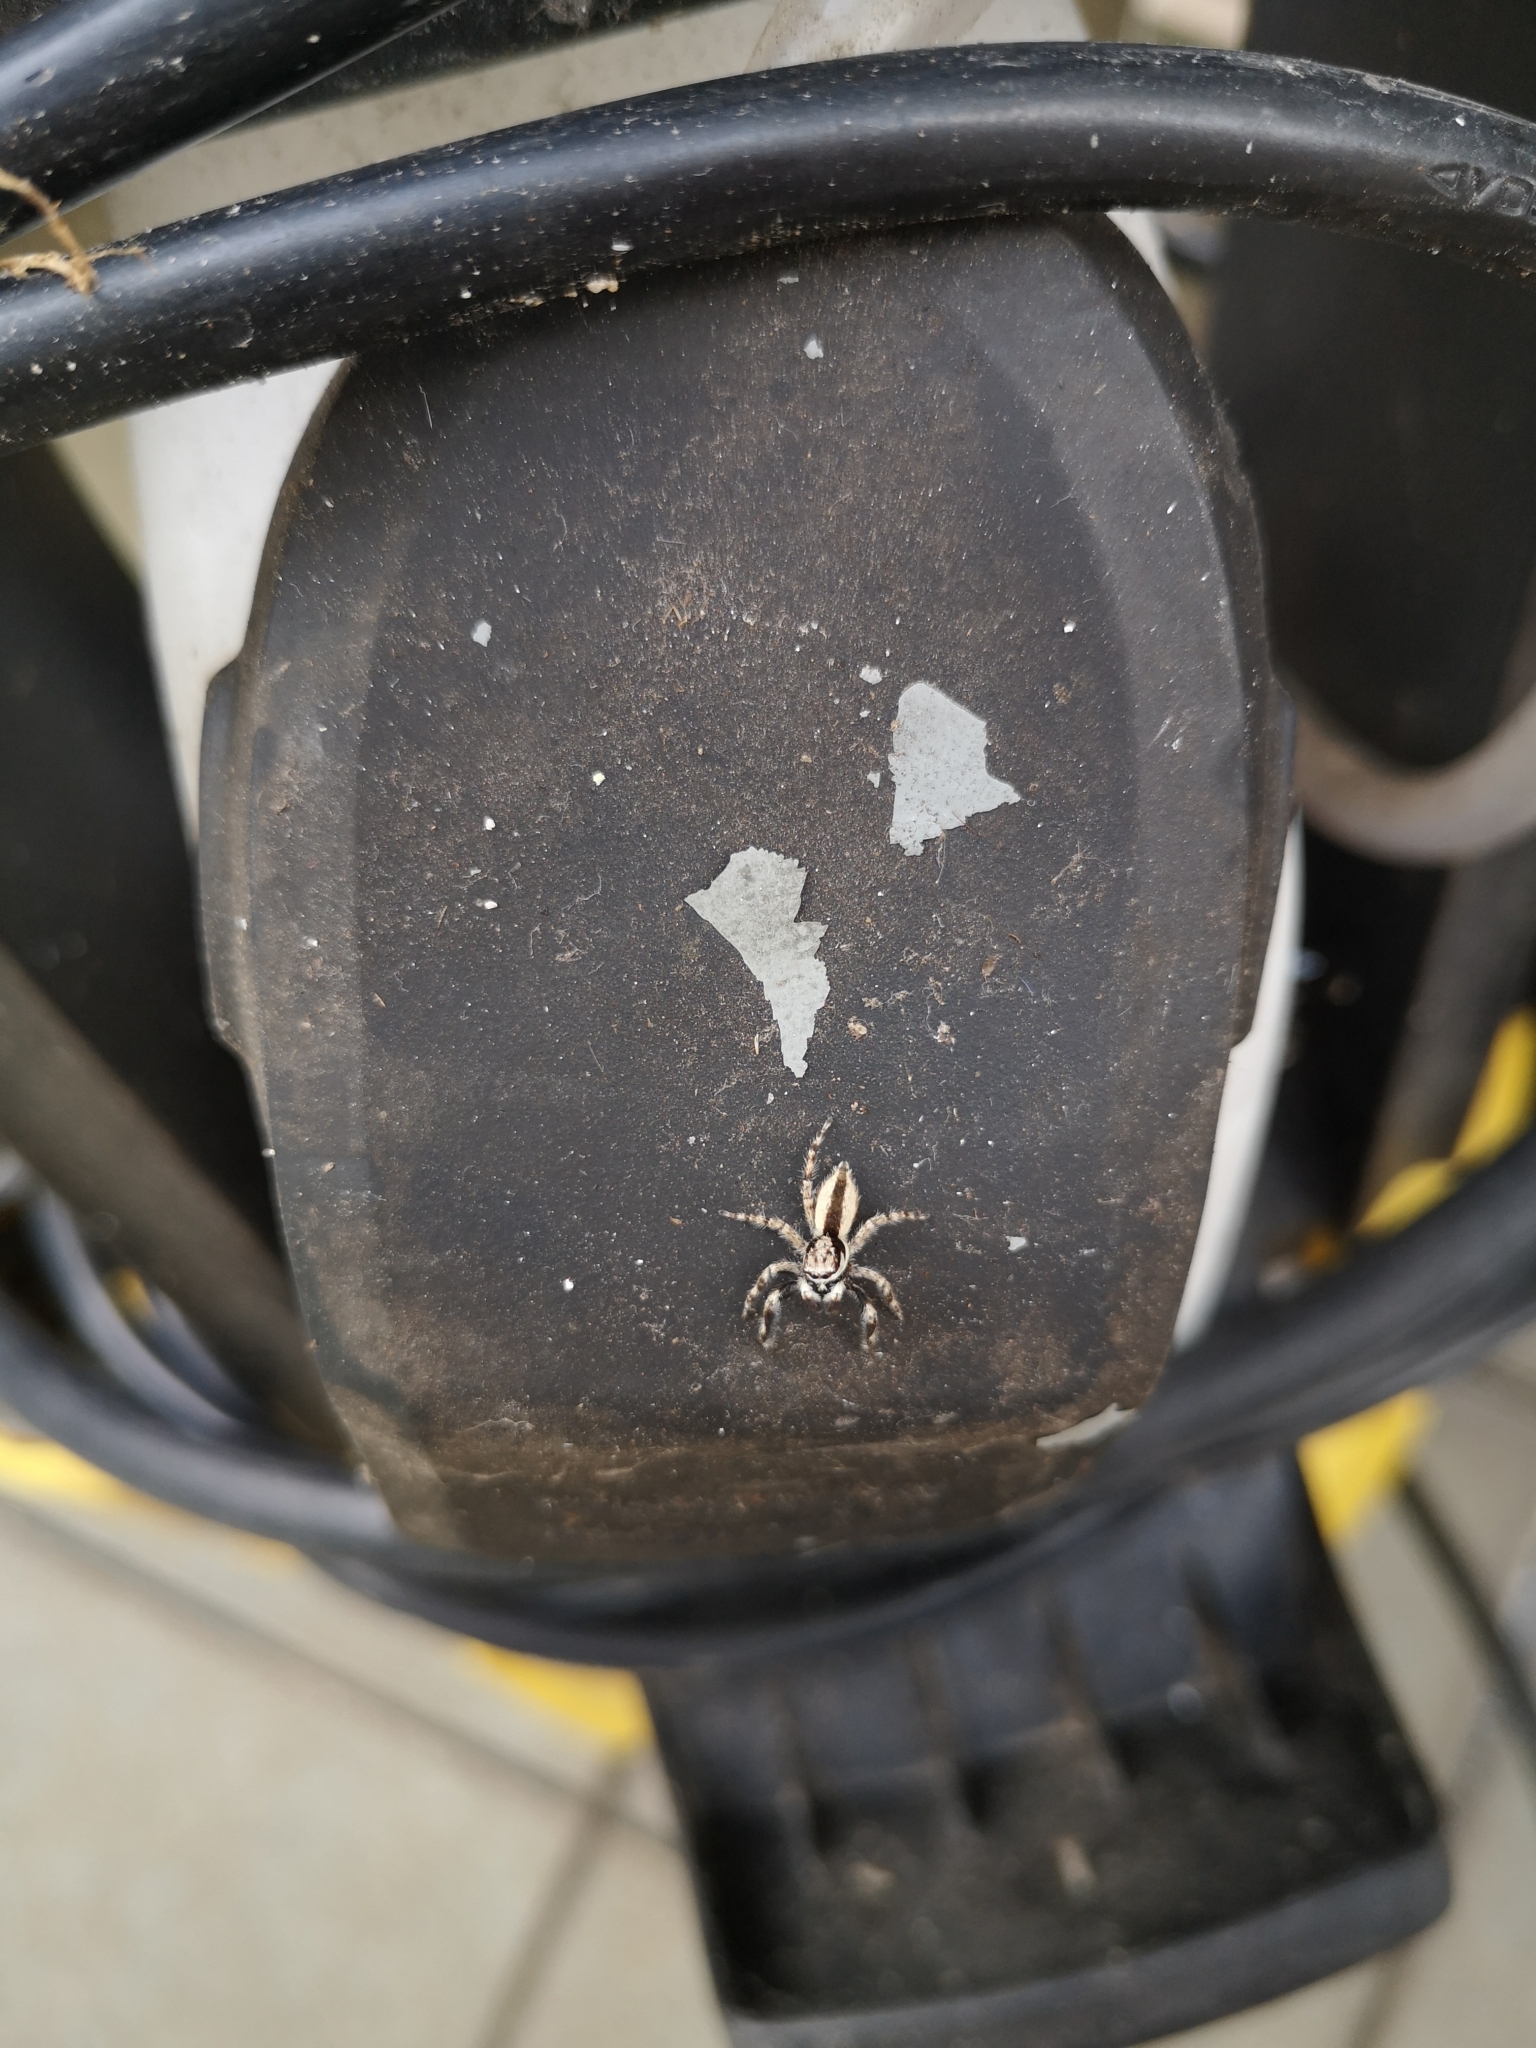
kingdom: Animalia
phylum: Arthropoda
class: Arachnida
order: Araneae
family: Salticidae
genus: Menemerus
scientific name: Menemerus bivittatus
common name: Gray wall jumper
